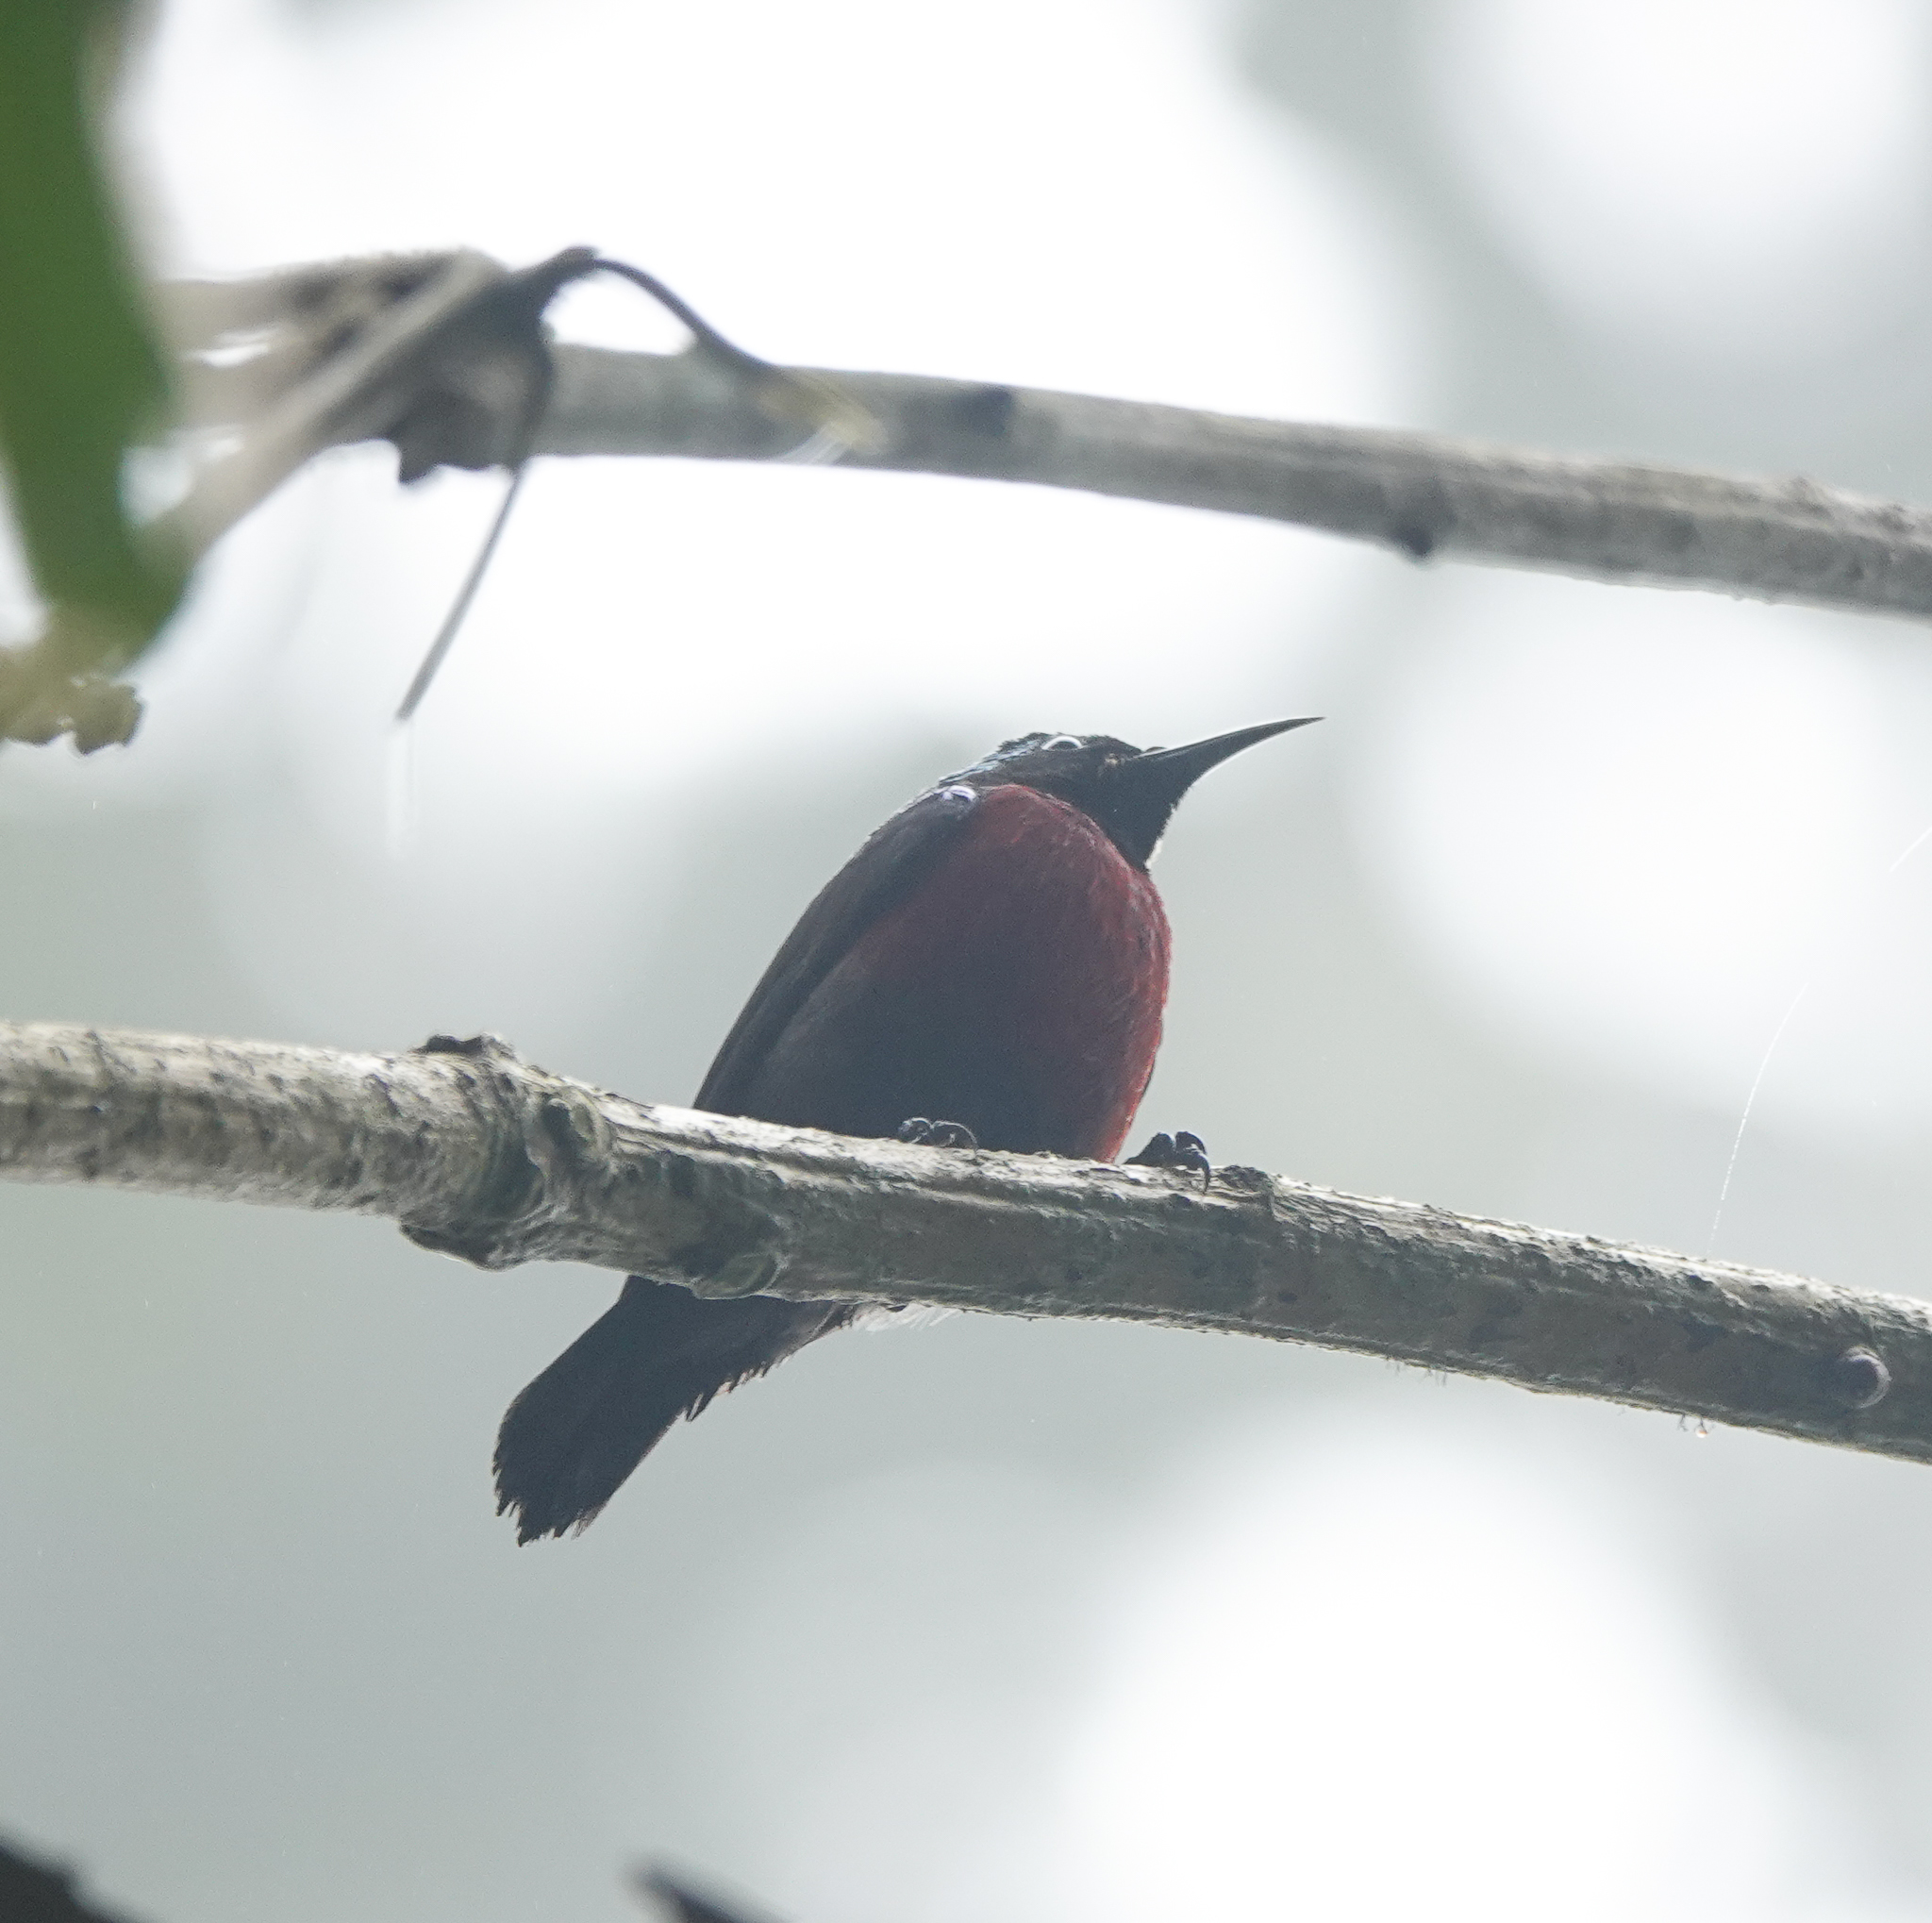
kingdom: Animalia
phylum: Chordata
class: Aves
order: Passeriformes
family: Nectariniidae
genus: Leptocoma
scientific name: Leptocoma brasiliana
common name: Van hasselt's sunbird
